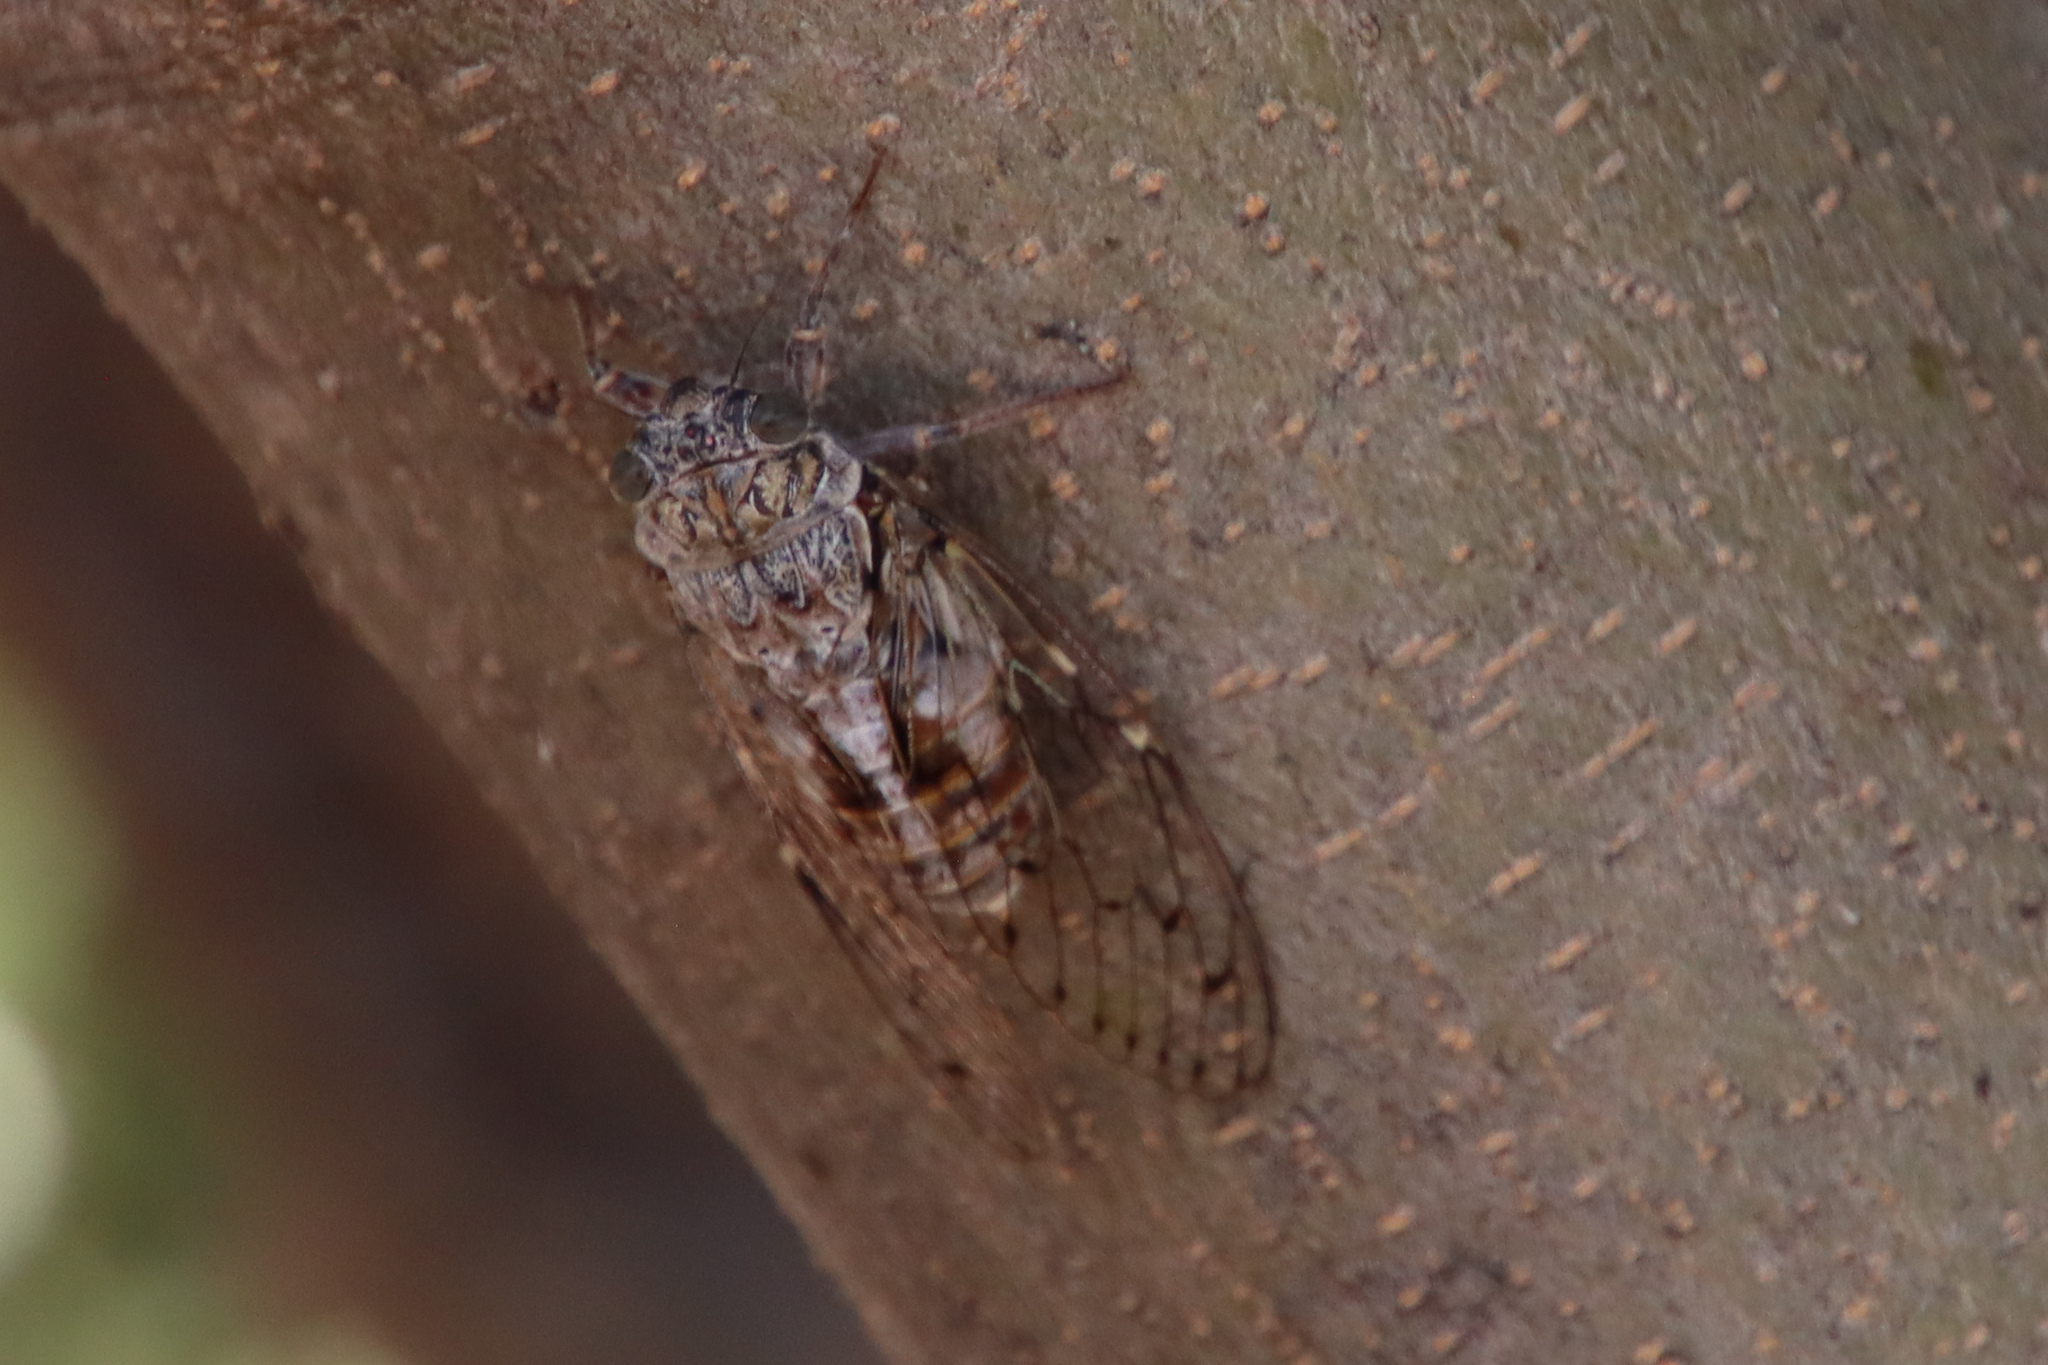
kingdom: Animalia
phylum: Arthropoda
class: Insecta
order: Hemiptera
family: Cicadidae
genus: Cicada
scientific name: Cicada orni
